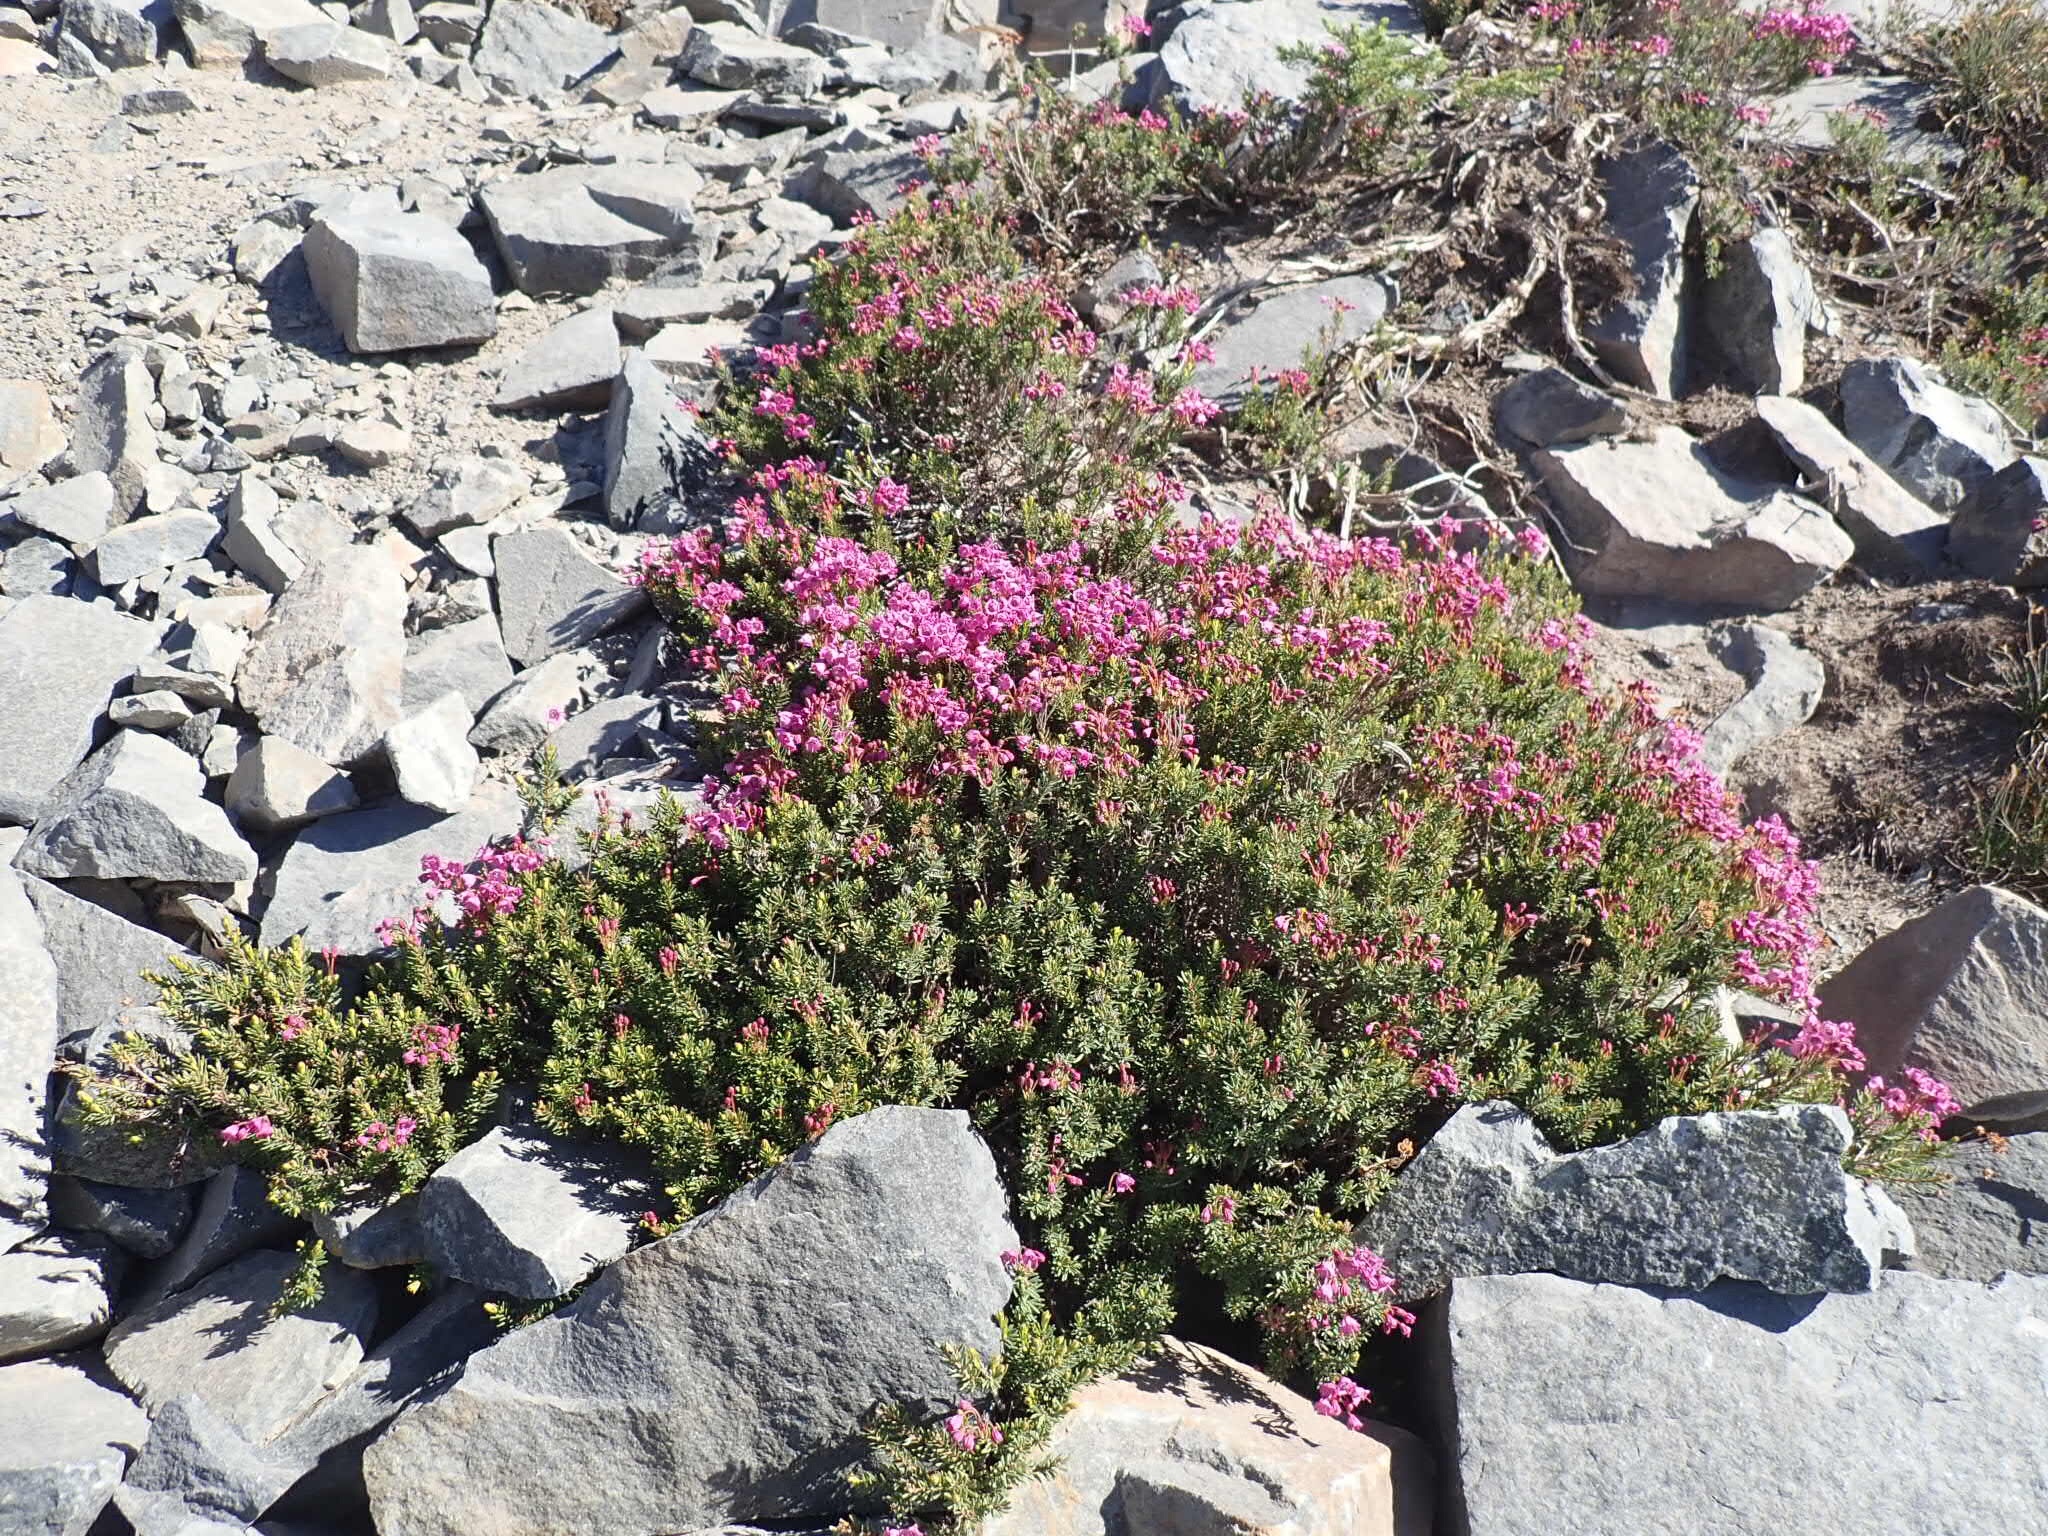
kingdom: Plantae
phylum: Tracheophyta
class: Magnoliopsida
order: Ericales
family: Ericaceae
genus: Phyllodoce
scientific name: Phyllodoce empetriformis
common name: Pink mountain heather
